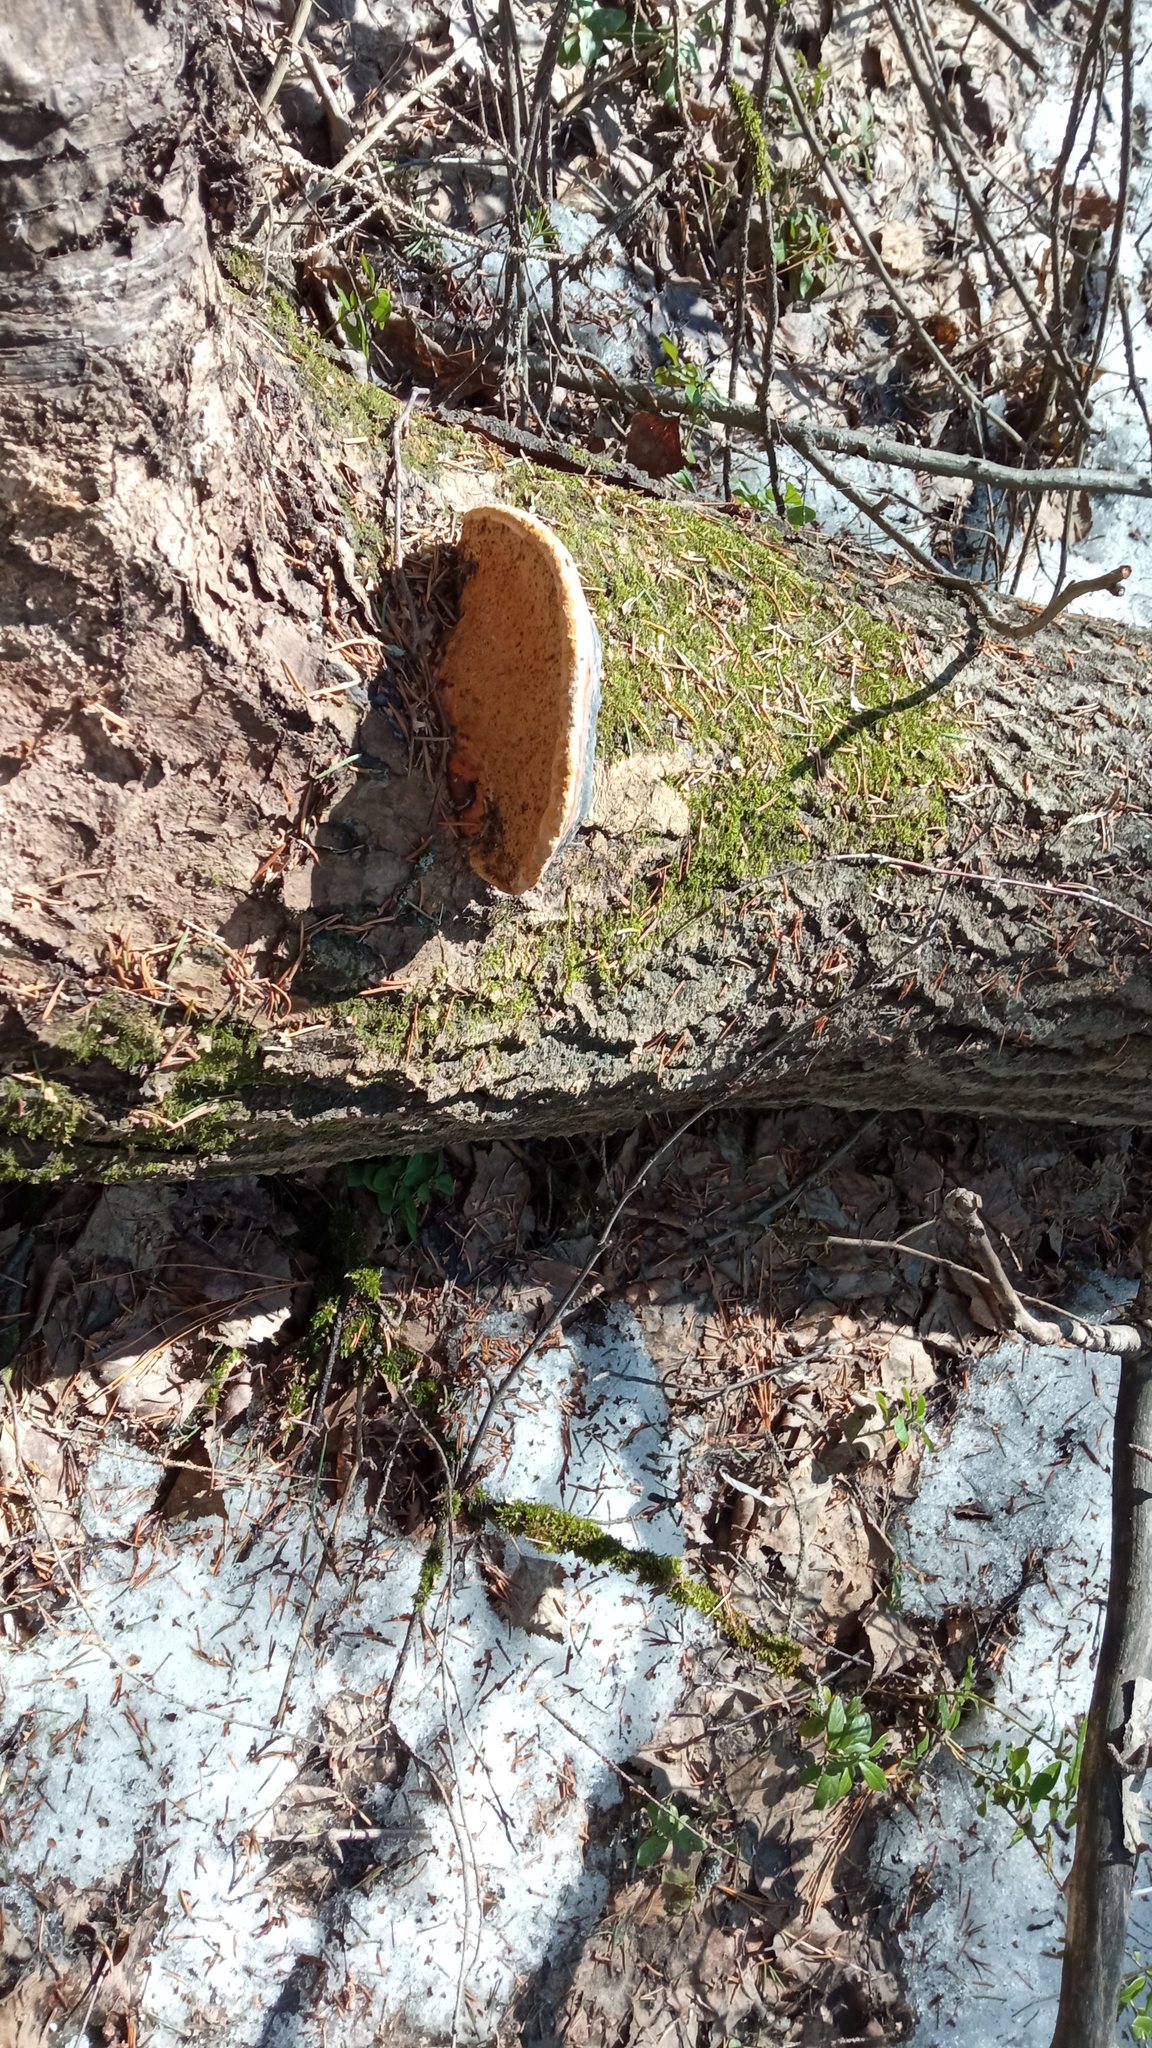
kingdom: Fungi
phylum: Basidiomycota
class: Agaricomycetes
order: Polyporales
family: Fomitopsidaceae
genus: Fomitopsis
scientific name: Fomitopsis pinicola
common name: Red-belted bracket
